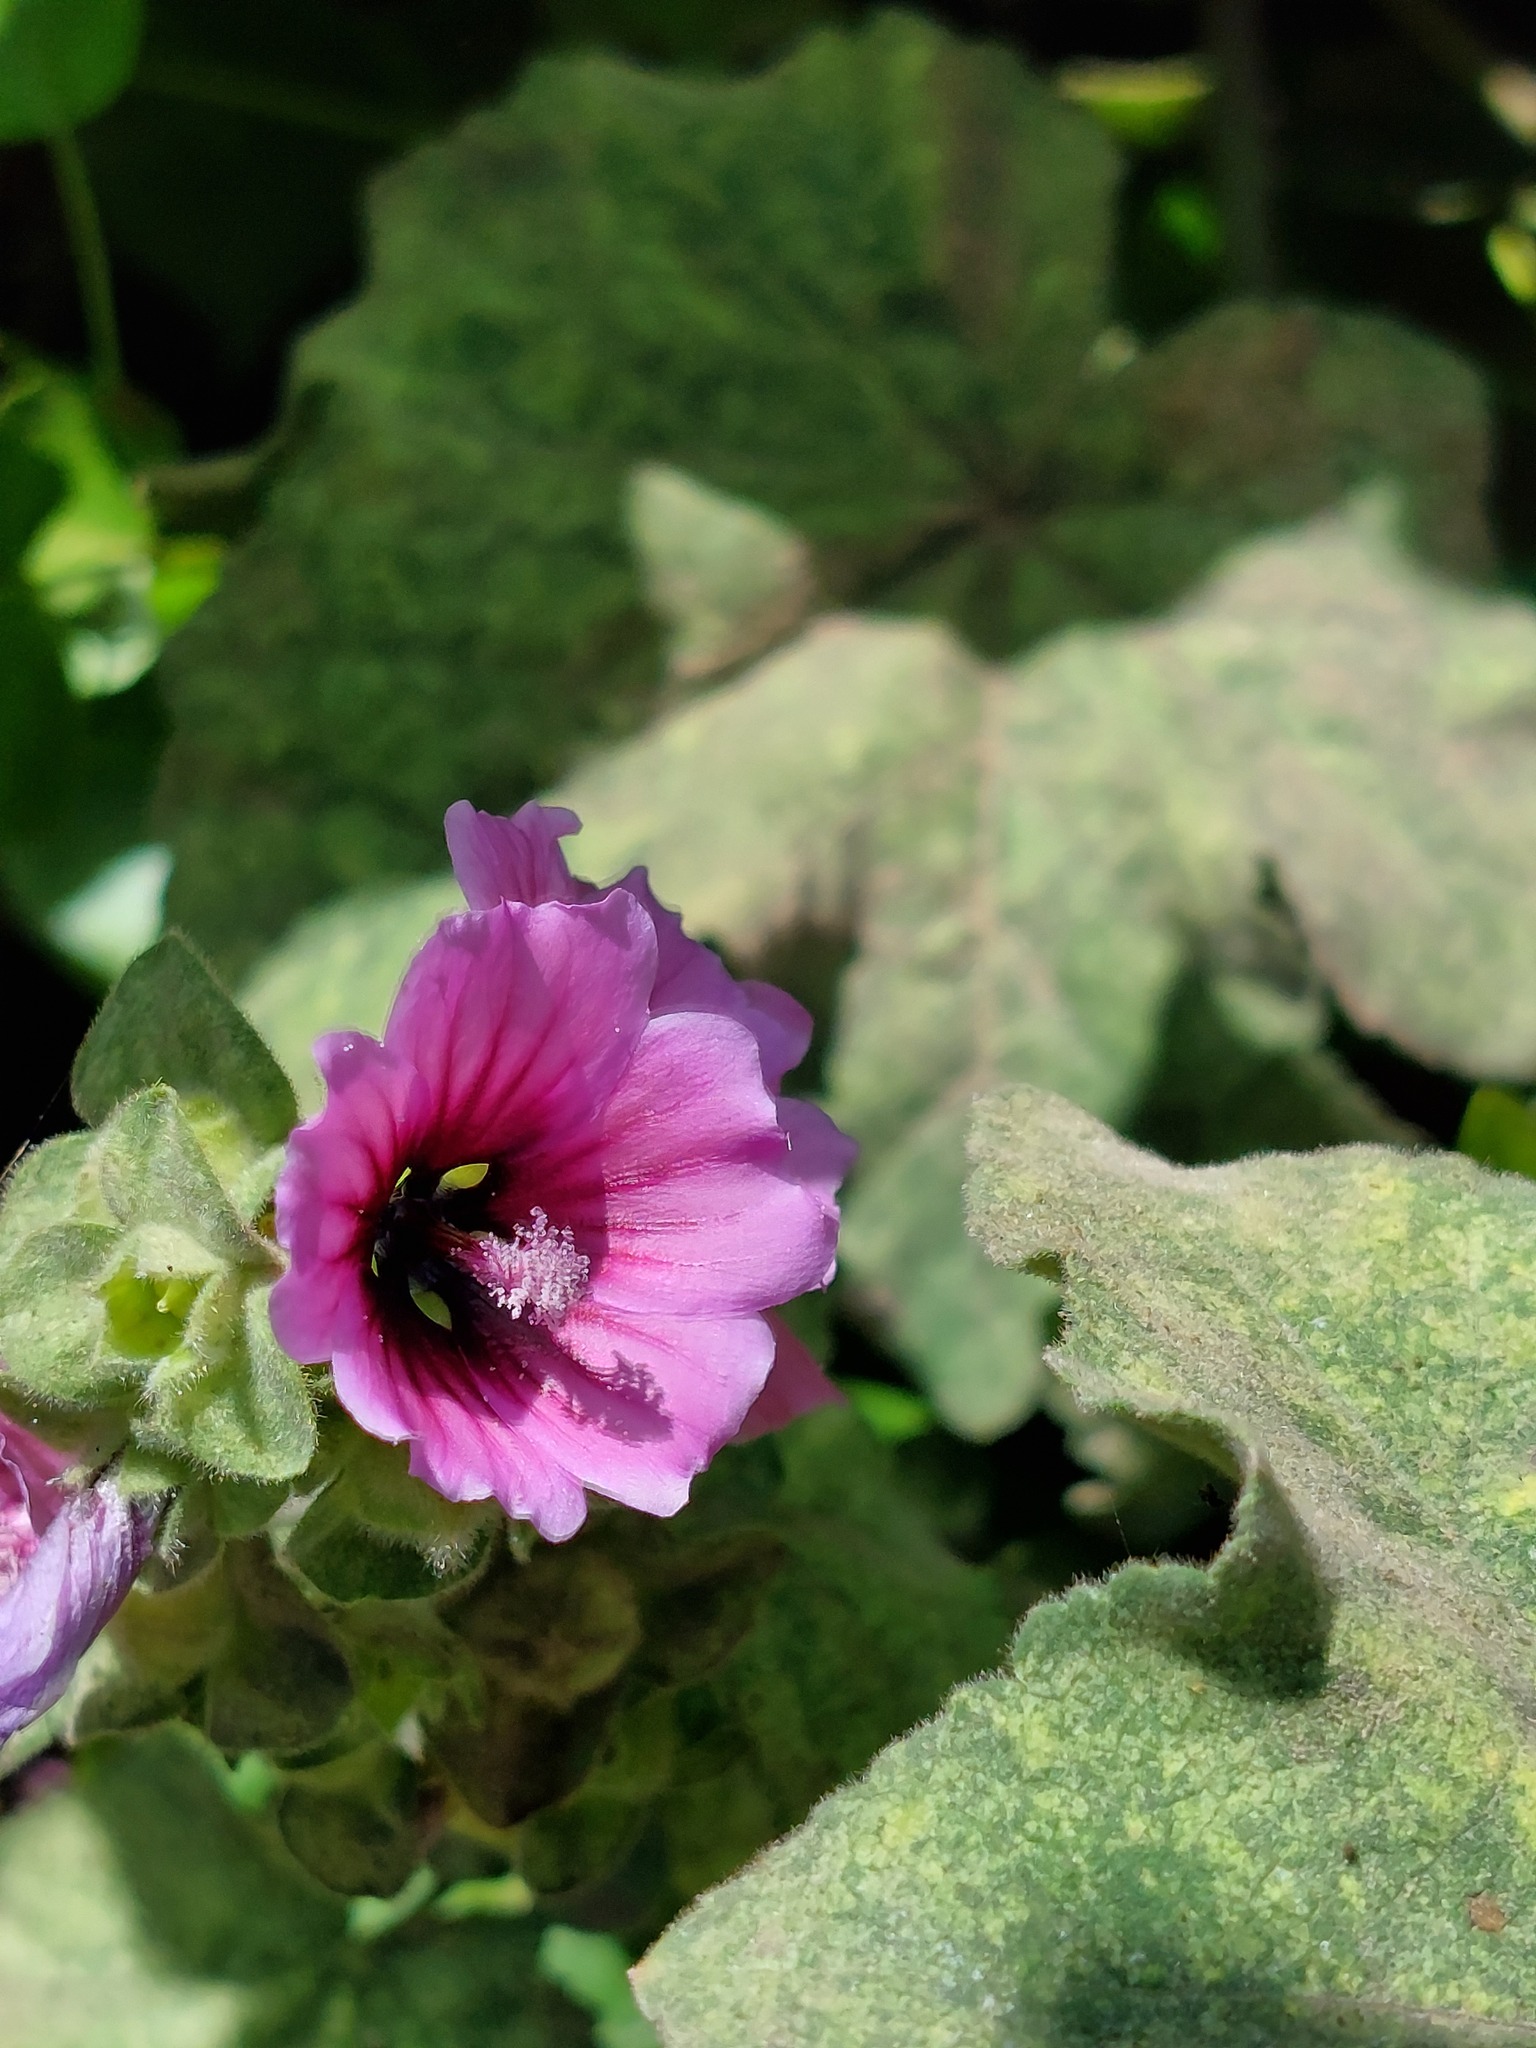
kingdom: Plantae
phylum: Tracheophyta
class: Magnoliopsida
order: Malvales
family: Malvaceae
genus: Malva
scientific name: Malva arborea
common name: Tree mallow
